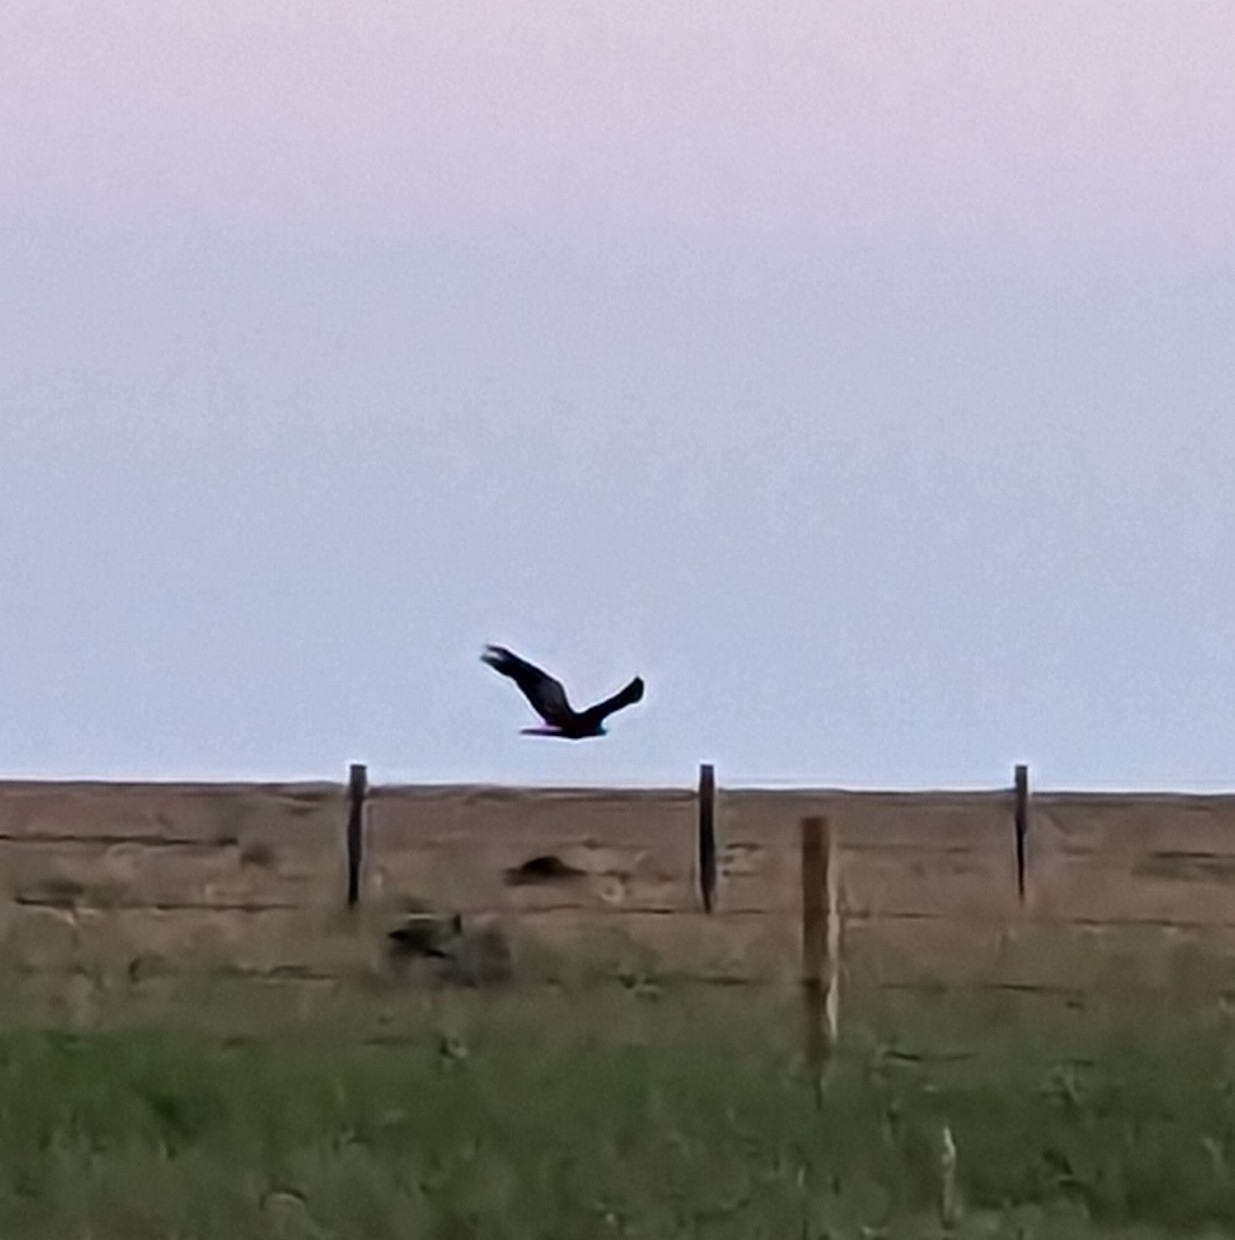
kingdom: Animalia
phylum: Chordata
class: Aves
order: Accipitriformes
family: Accipitridae
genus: Aquila
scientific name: Aquila chrysaetos
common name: Golden eagle
